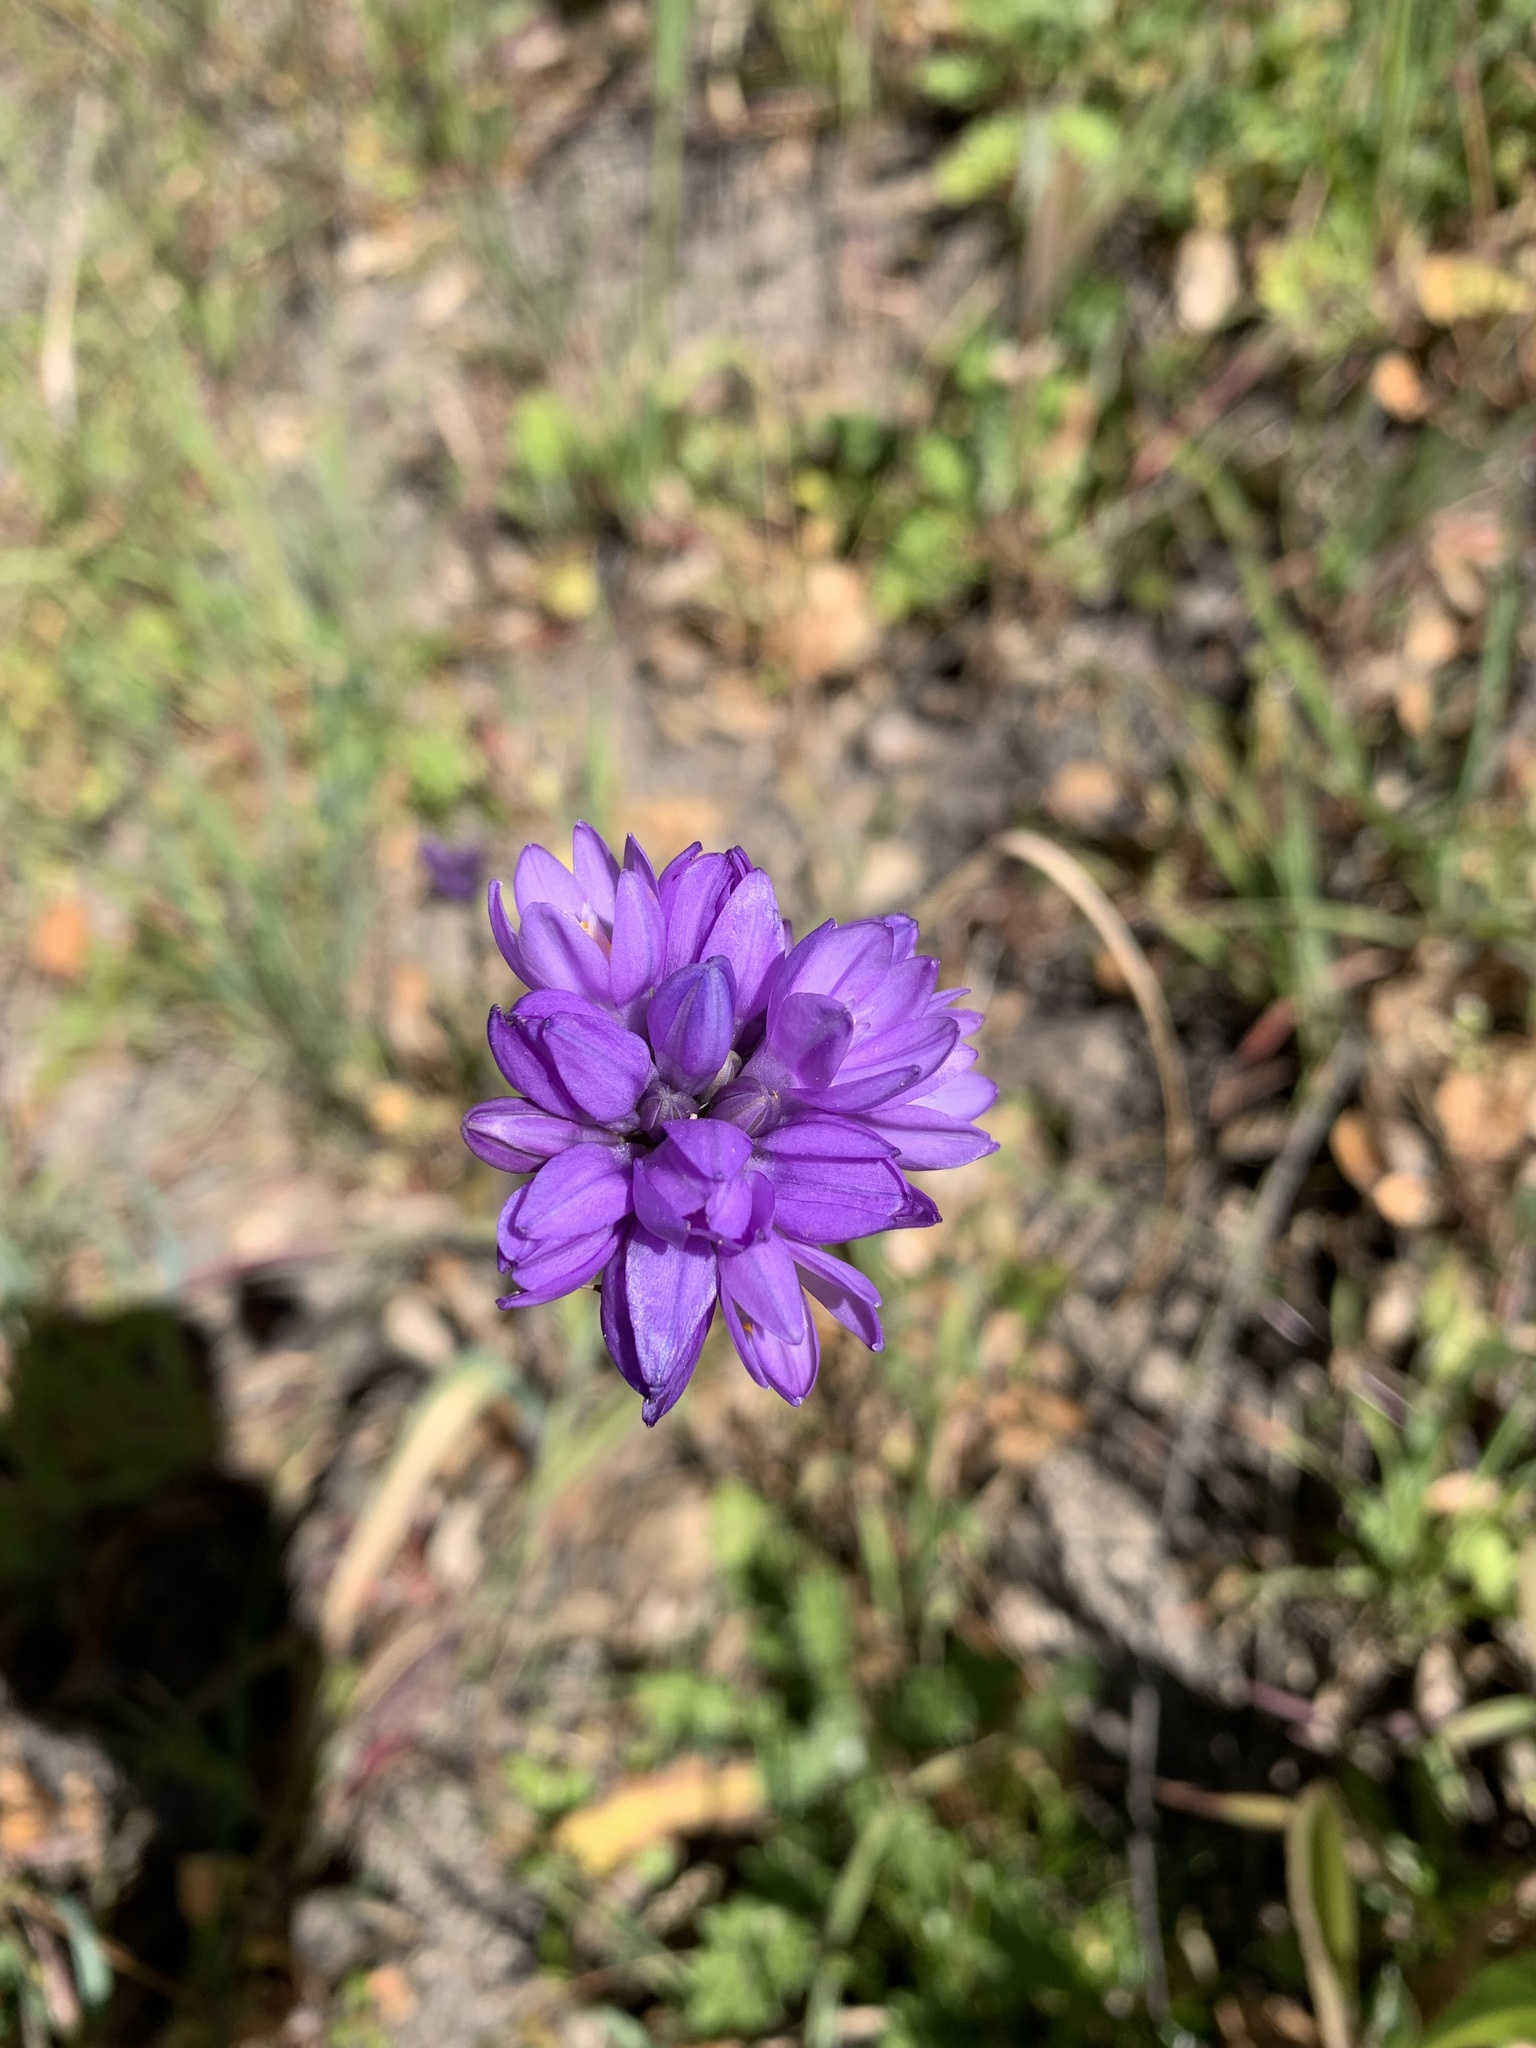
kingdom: Plantae
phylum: Tracheophyta
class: Liliopsida
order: Asparagales
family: Asparagaceae
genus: Dipterostemon
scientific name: Dipterostemon capitatus
